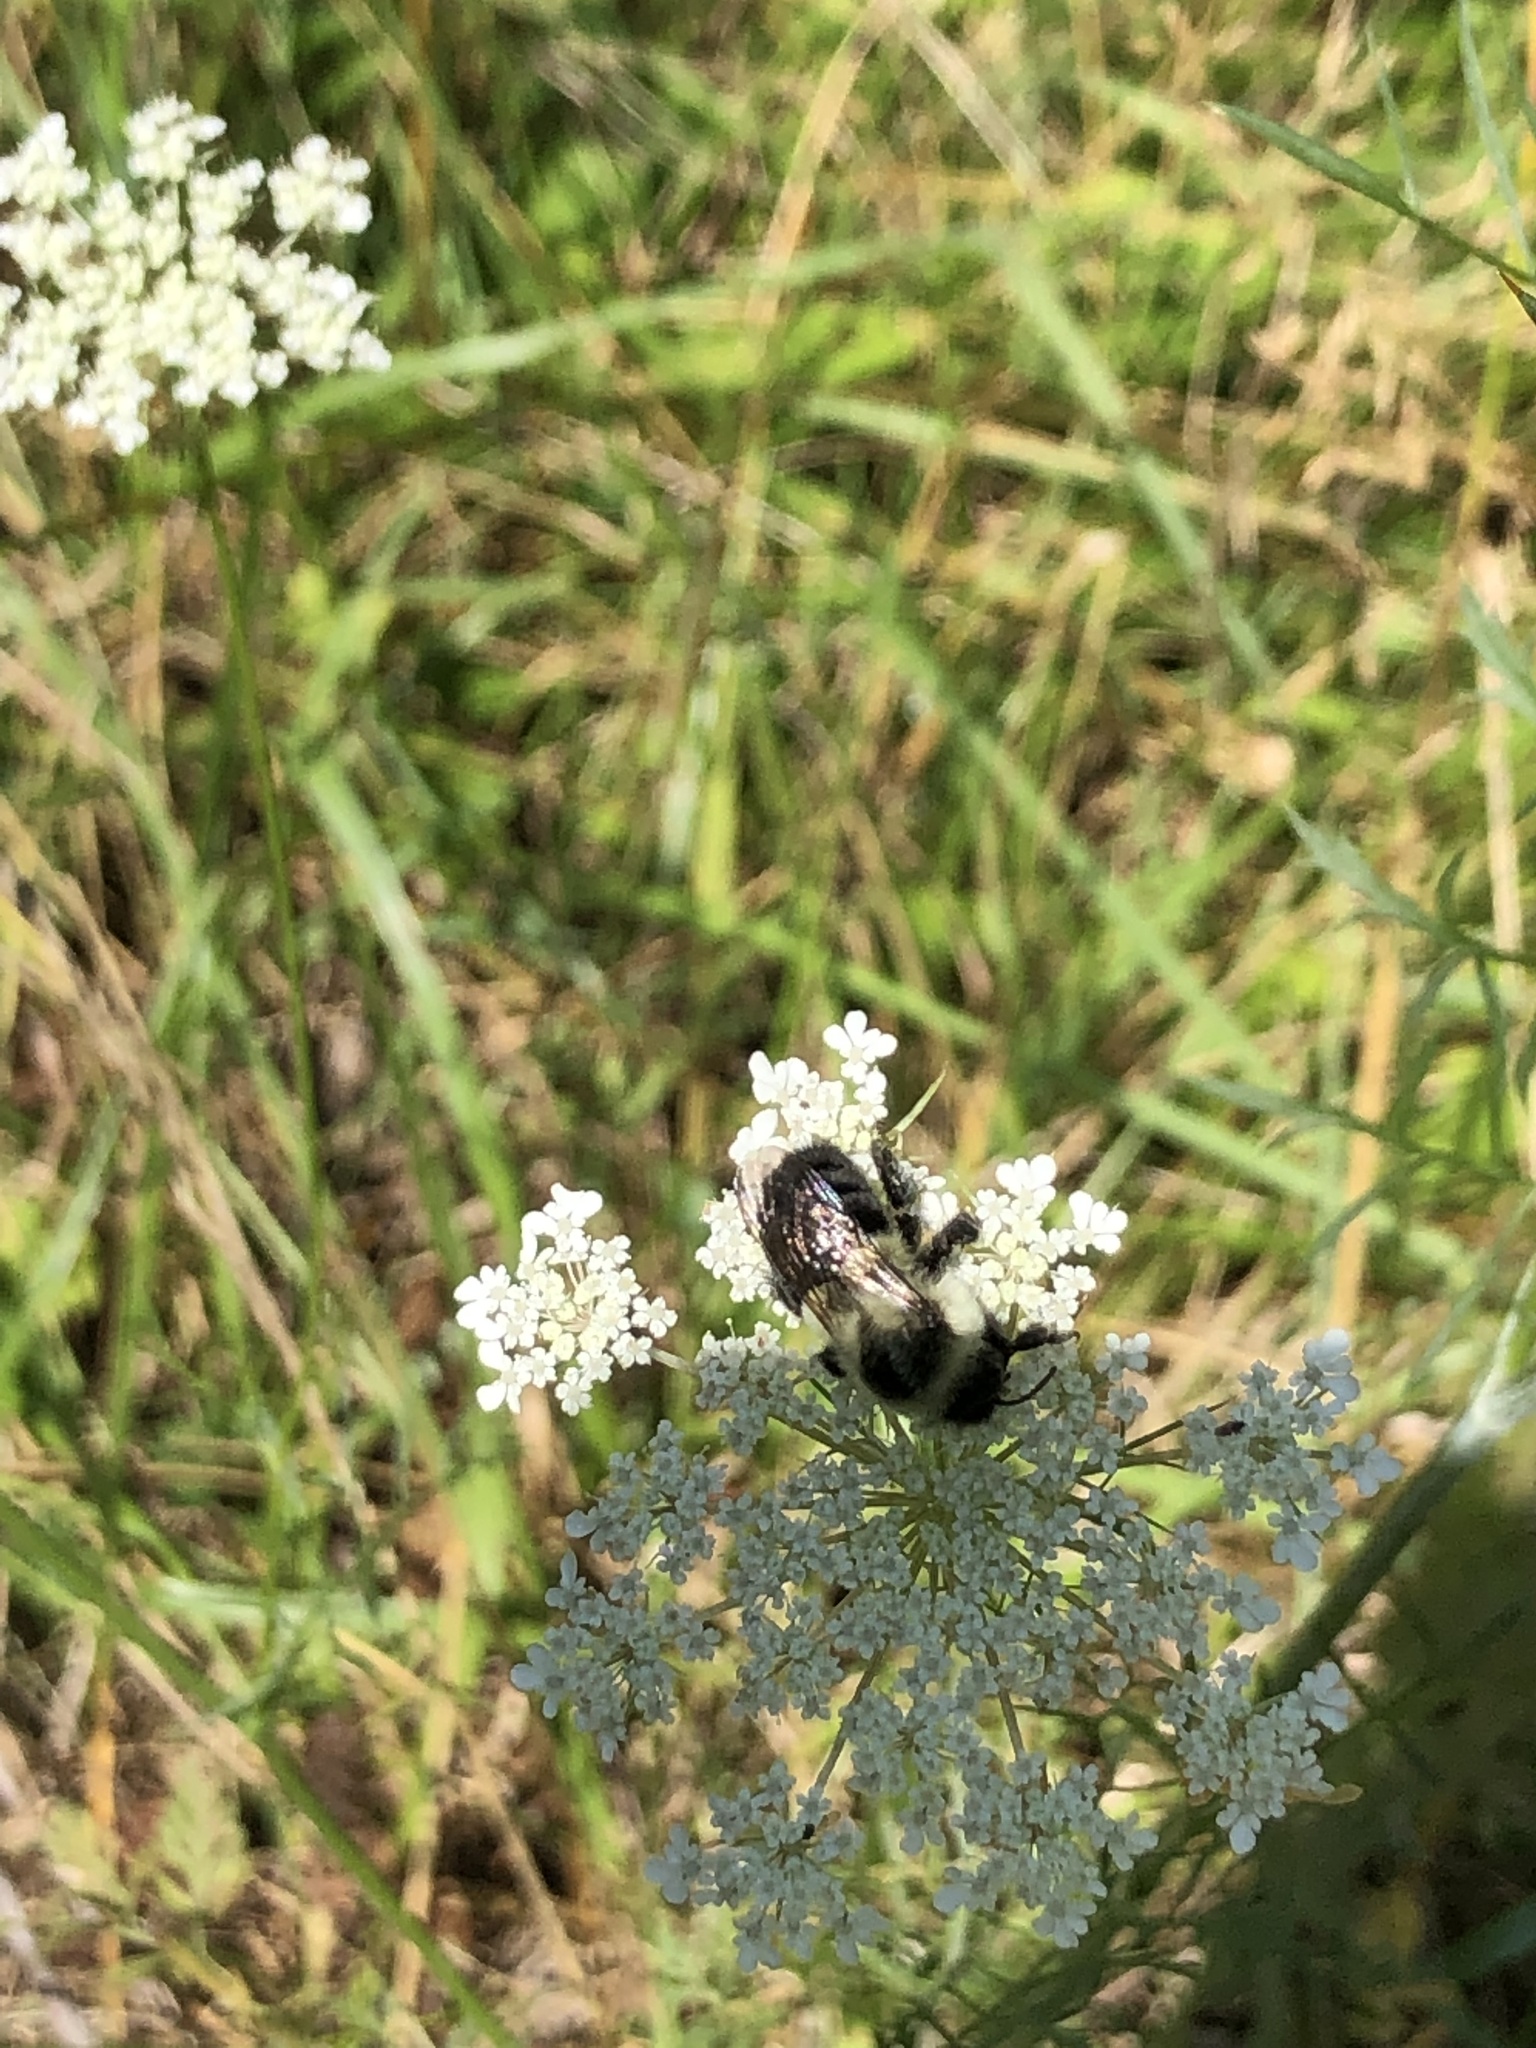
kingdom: Animalia
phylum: Arthropoda
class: Insecta
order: Hymenoptera
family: Apidae
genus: Bombus
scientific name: Bombus impatiens
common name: Common eastern bumble bee
